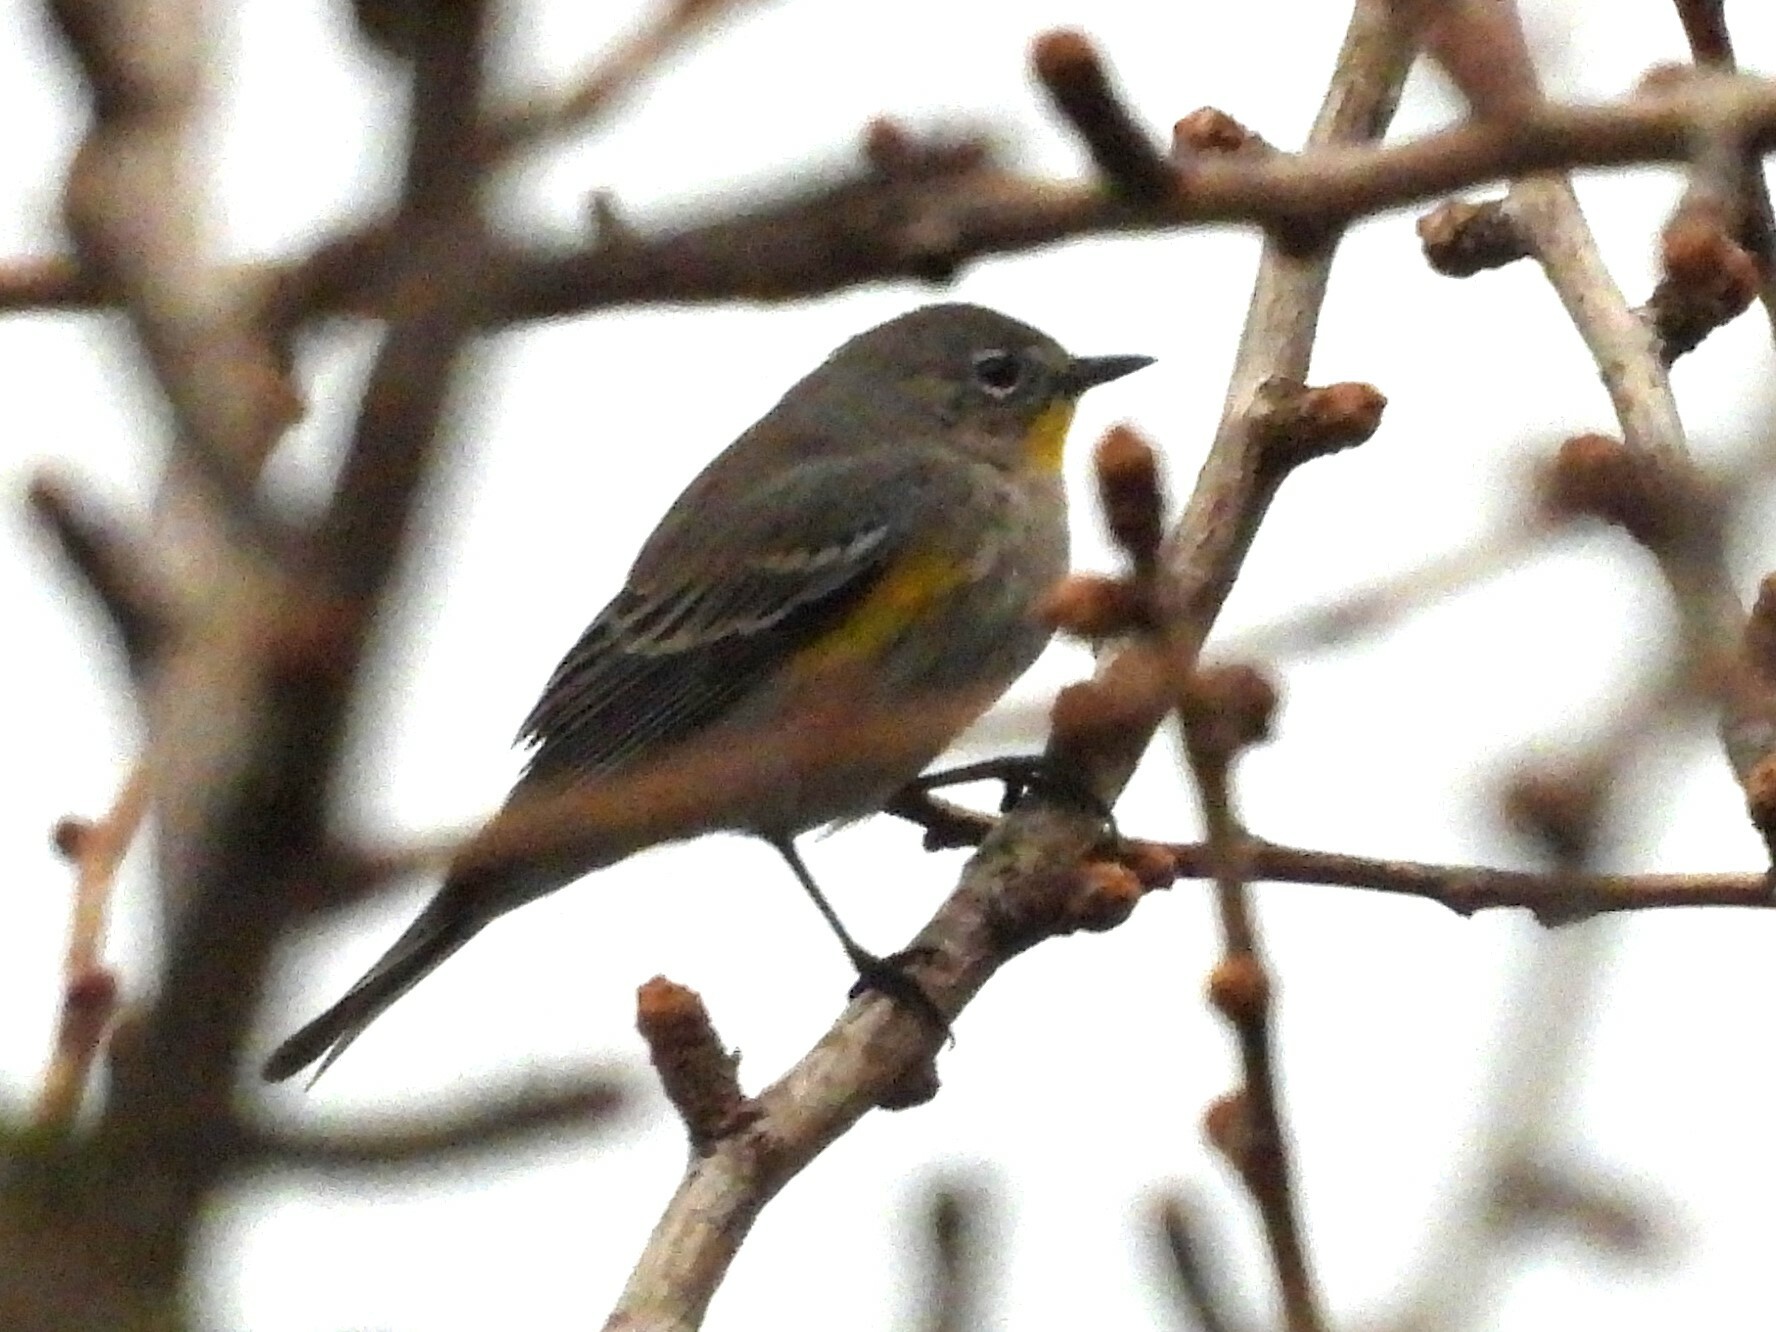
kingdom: Animalia
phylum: Chordata
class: Aves
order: Passeriformes
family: Parulidae
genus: Setophaga
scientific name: Setophaga coronata
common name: Myrtle warbler
